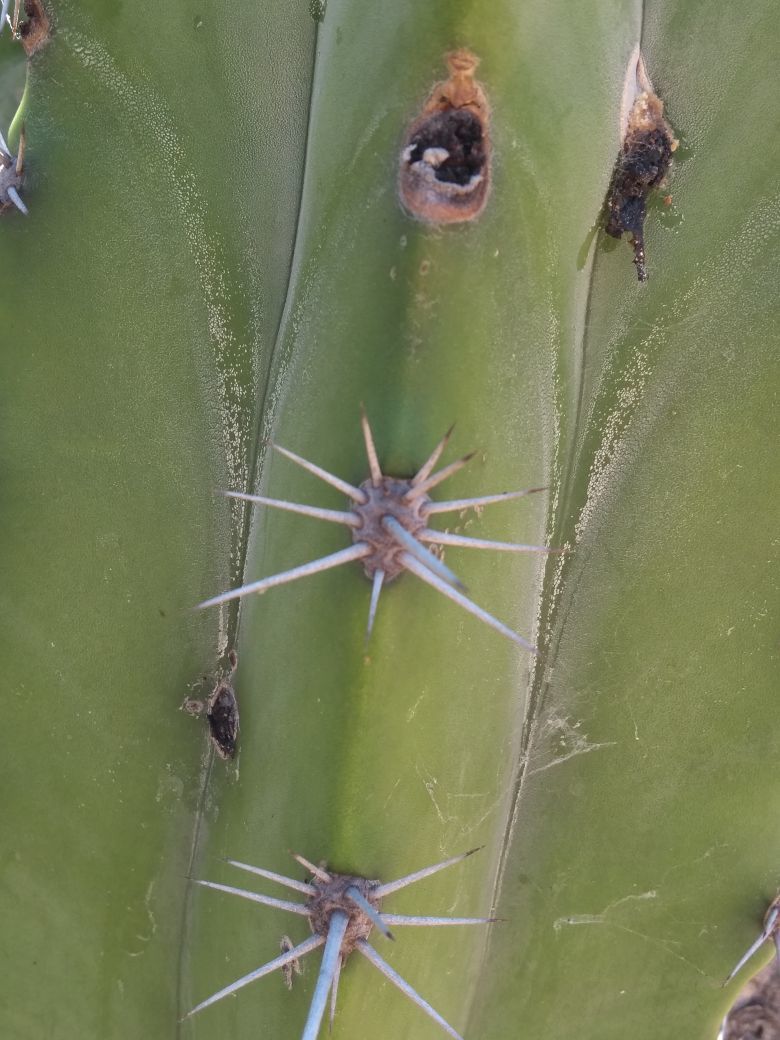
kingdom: Plantae
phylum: Tracheophyta
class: Magnoliopsida
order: Caryophyllales
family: Cactaceae
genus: Stenocereus
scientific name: Stenocereus pruinosus
